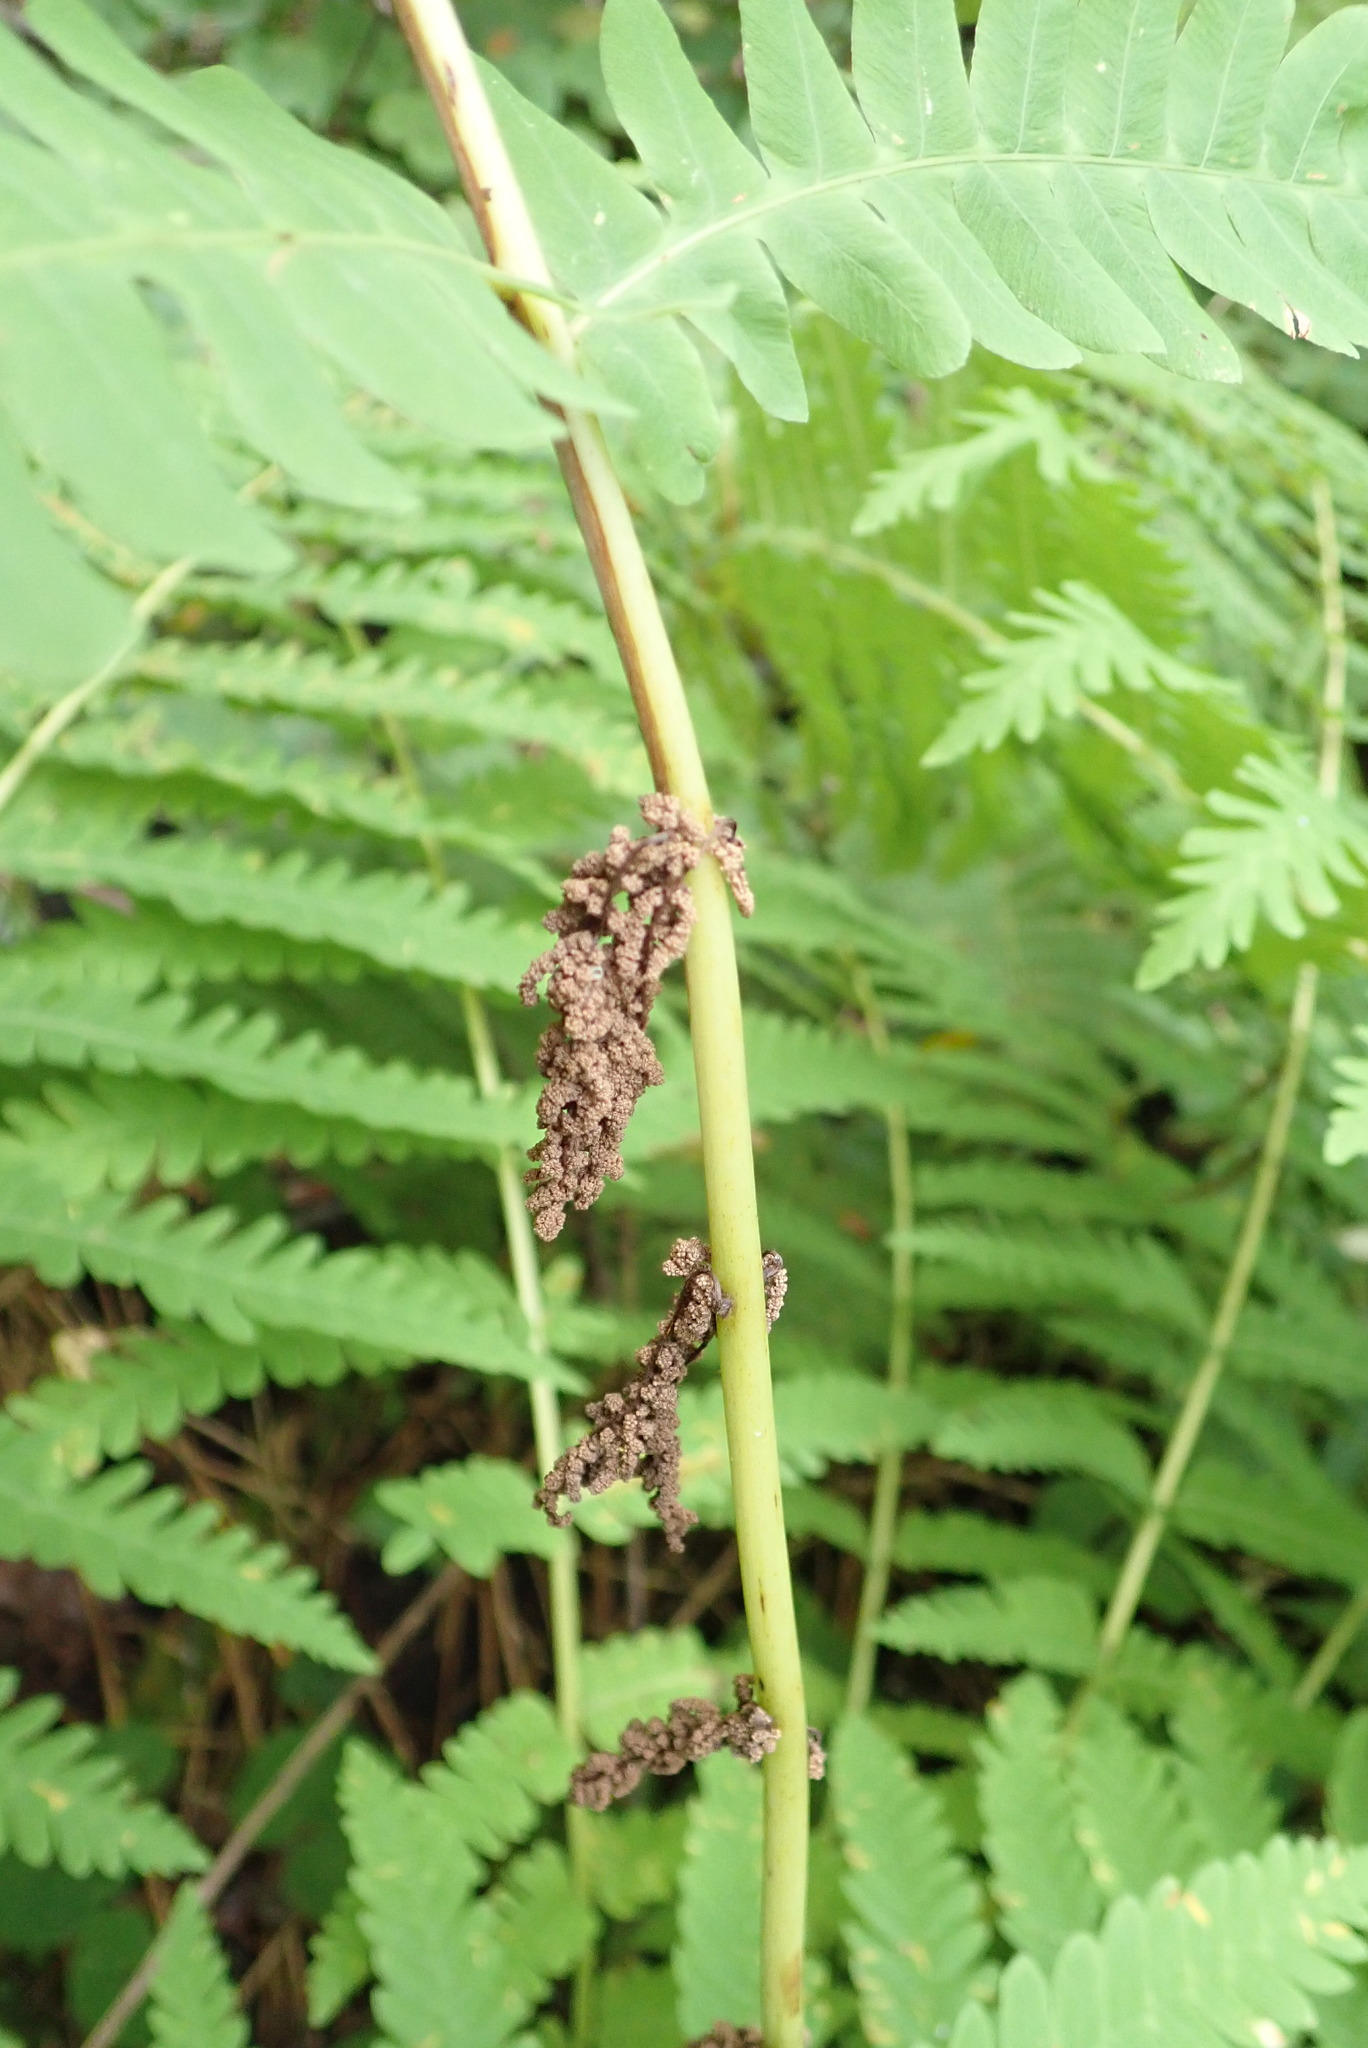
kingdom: Plantae
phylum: Tracheophyta
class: Polypodiopsida
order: Osmundales
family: Osmundaceae
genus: Claytosmunda
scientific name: Claytosmunda claytoniana
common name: Clayton's fern
